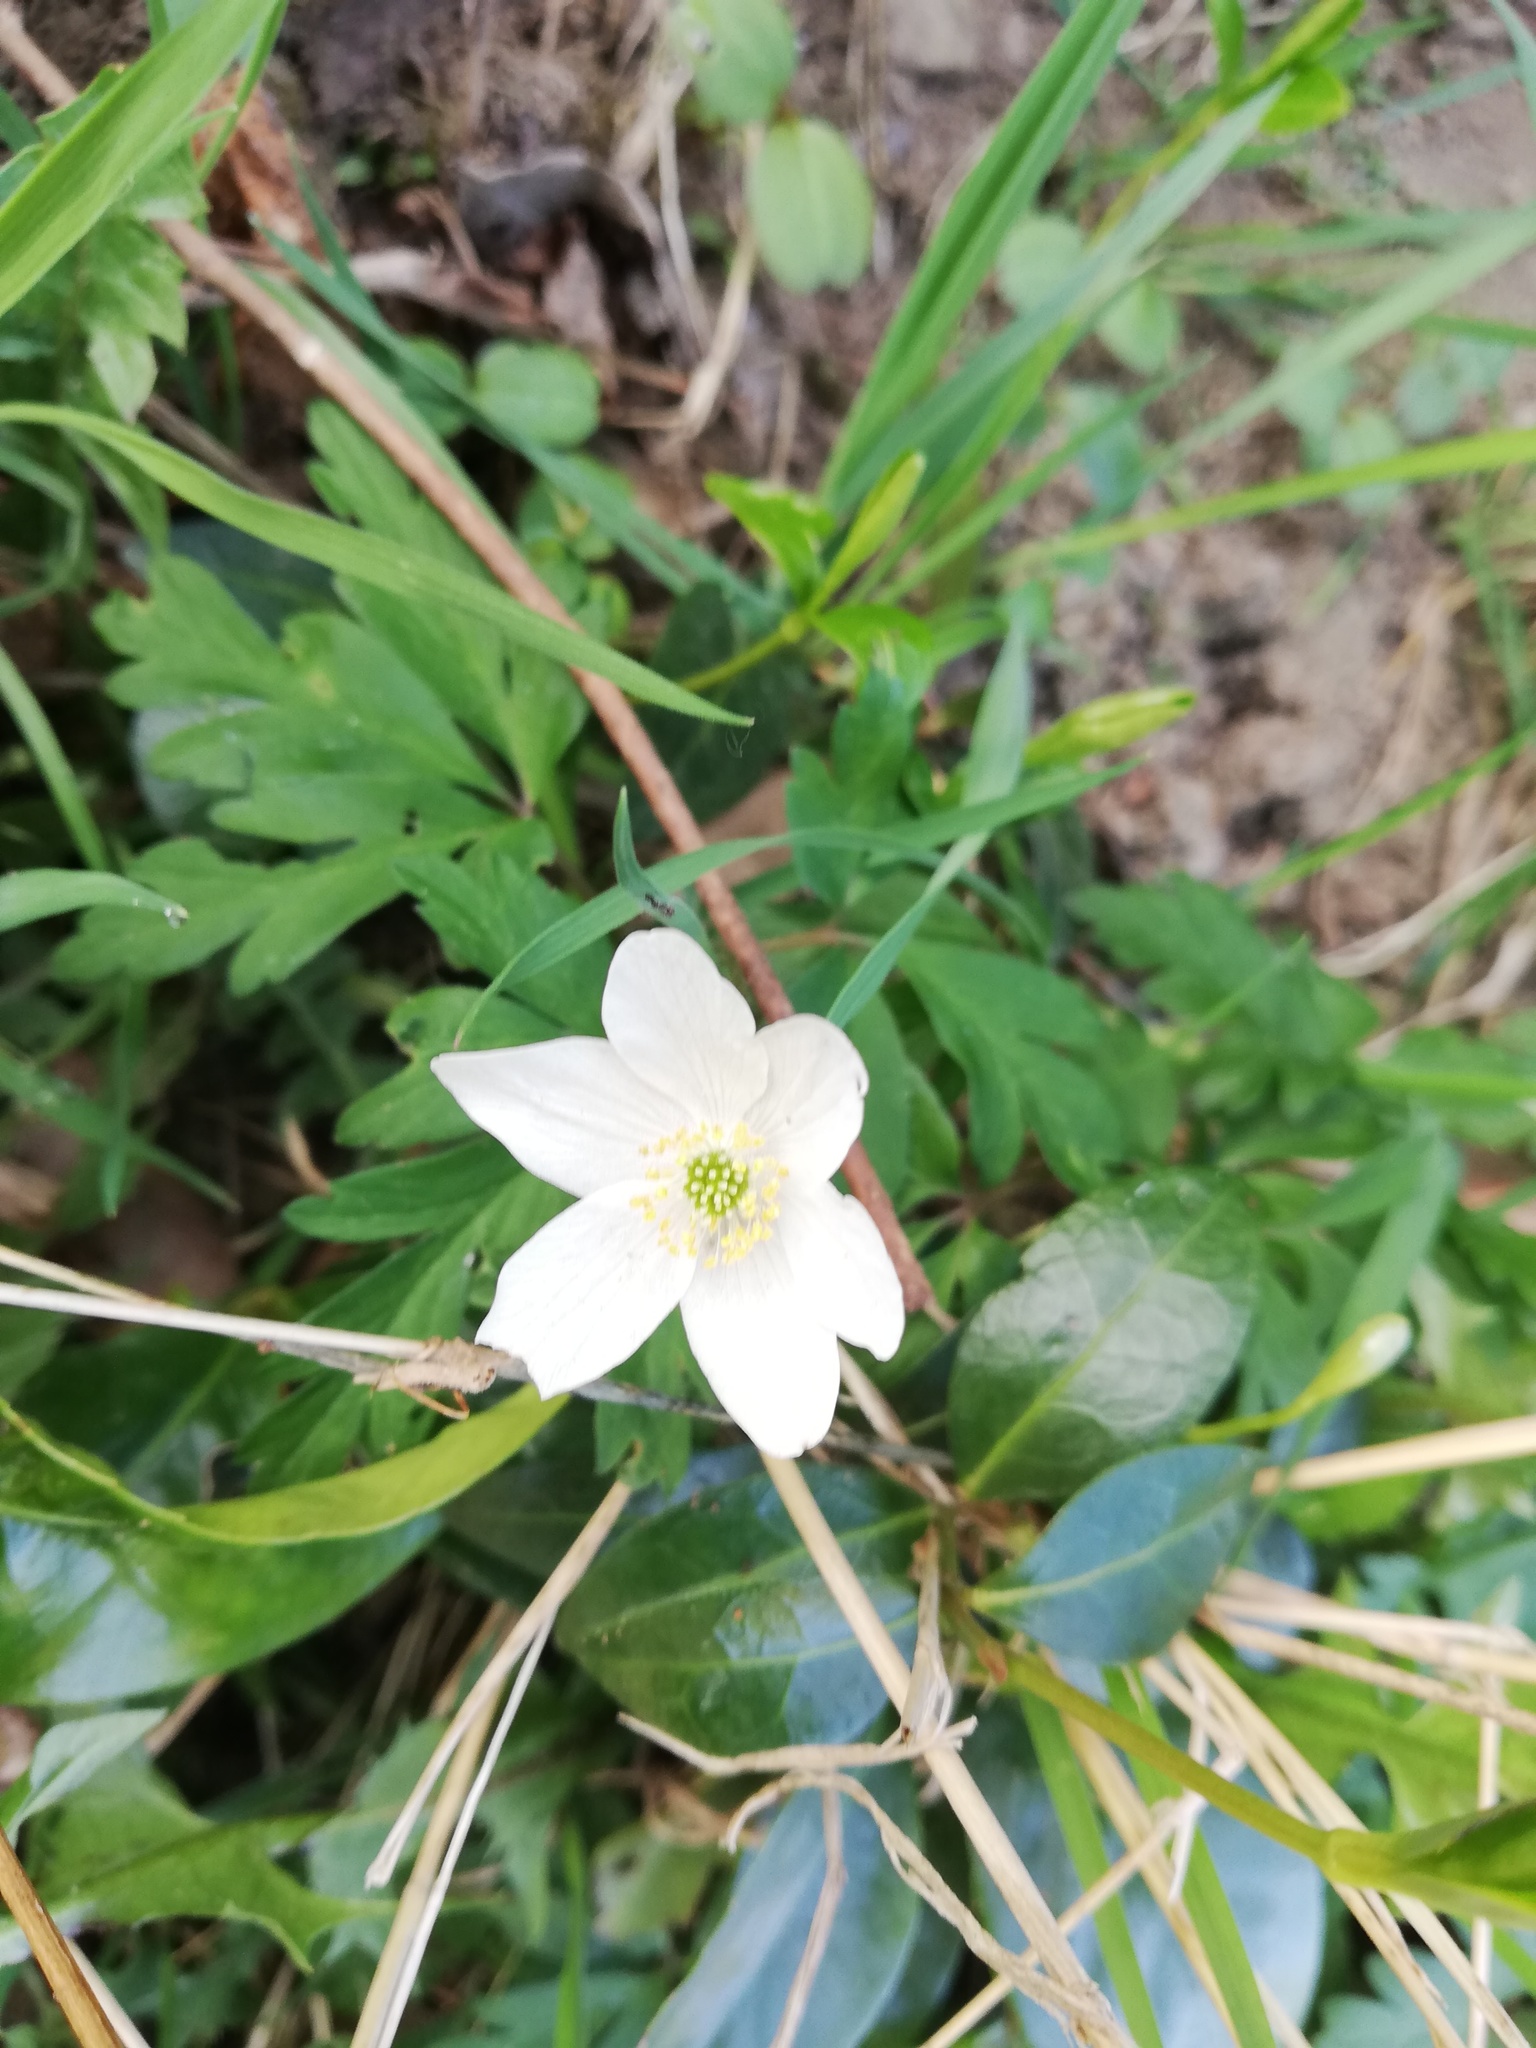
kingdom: Plantae
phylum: Tracheophyta
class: Magnoliopsida
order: Ranunculales
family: Ranunculaceae
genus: Anemone
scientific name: Anemone nemorosa
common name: Wood anemone
